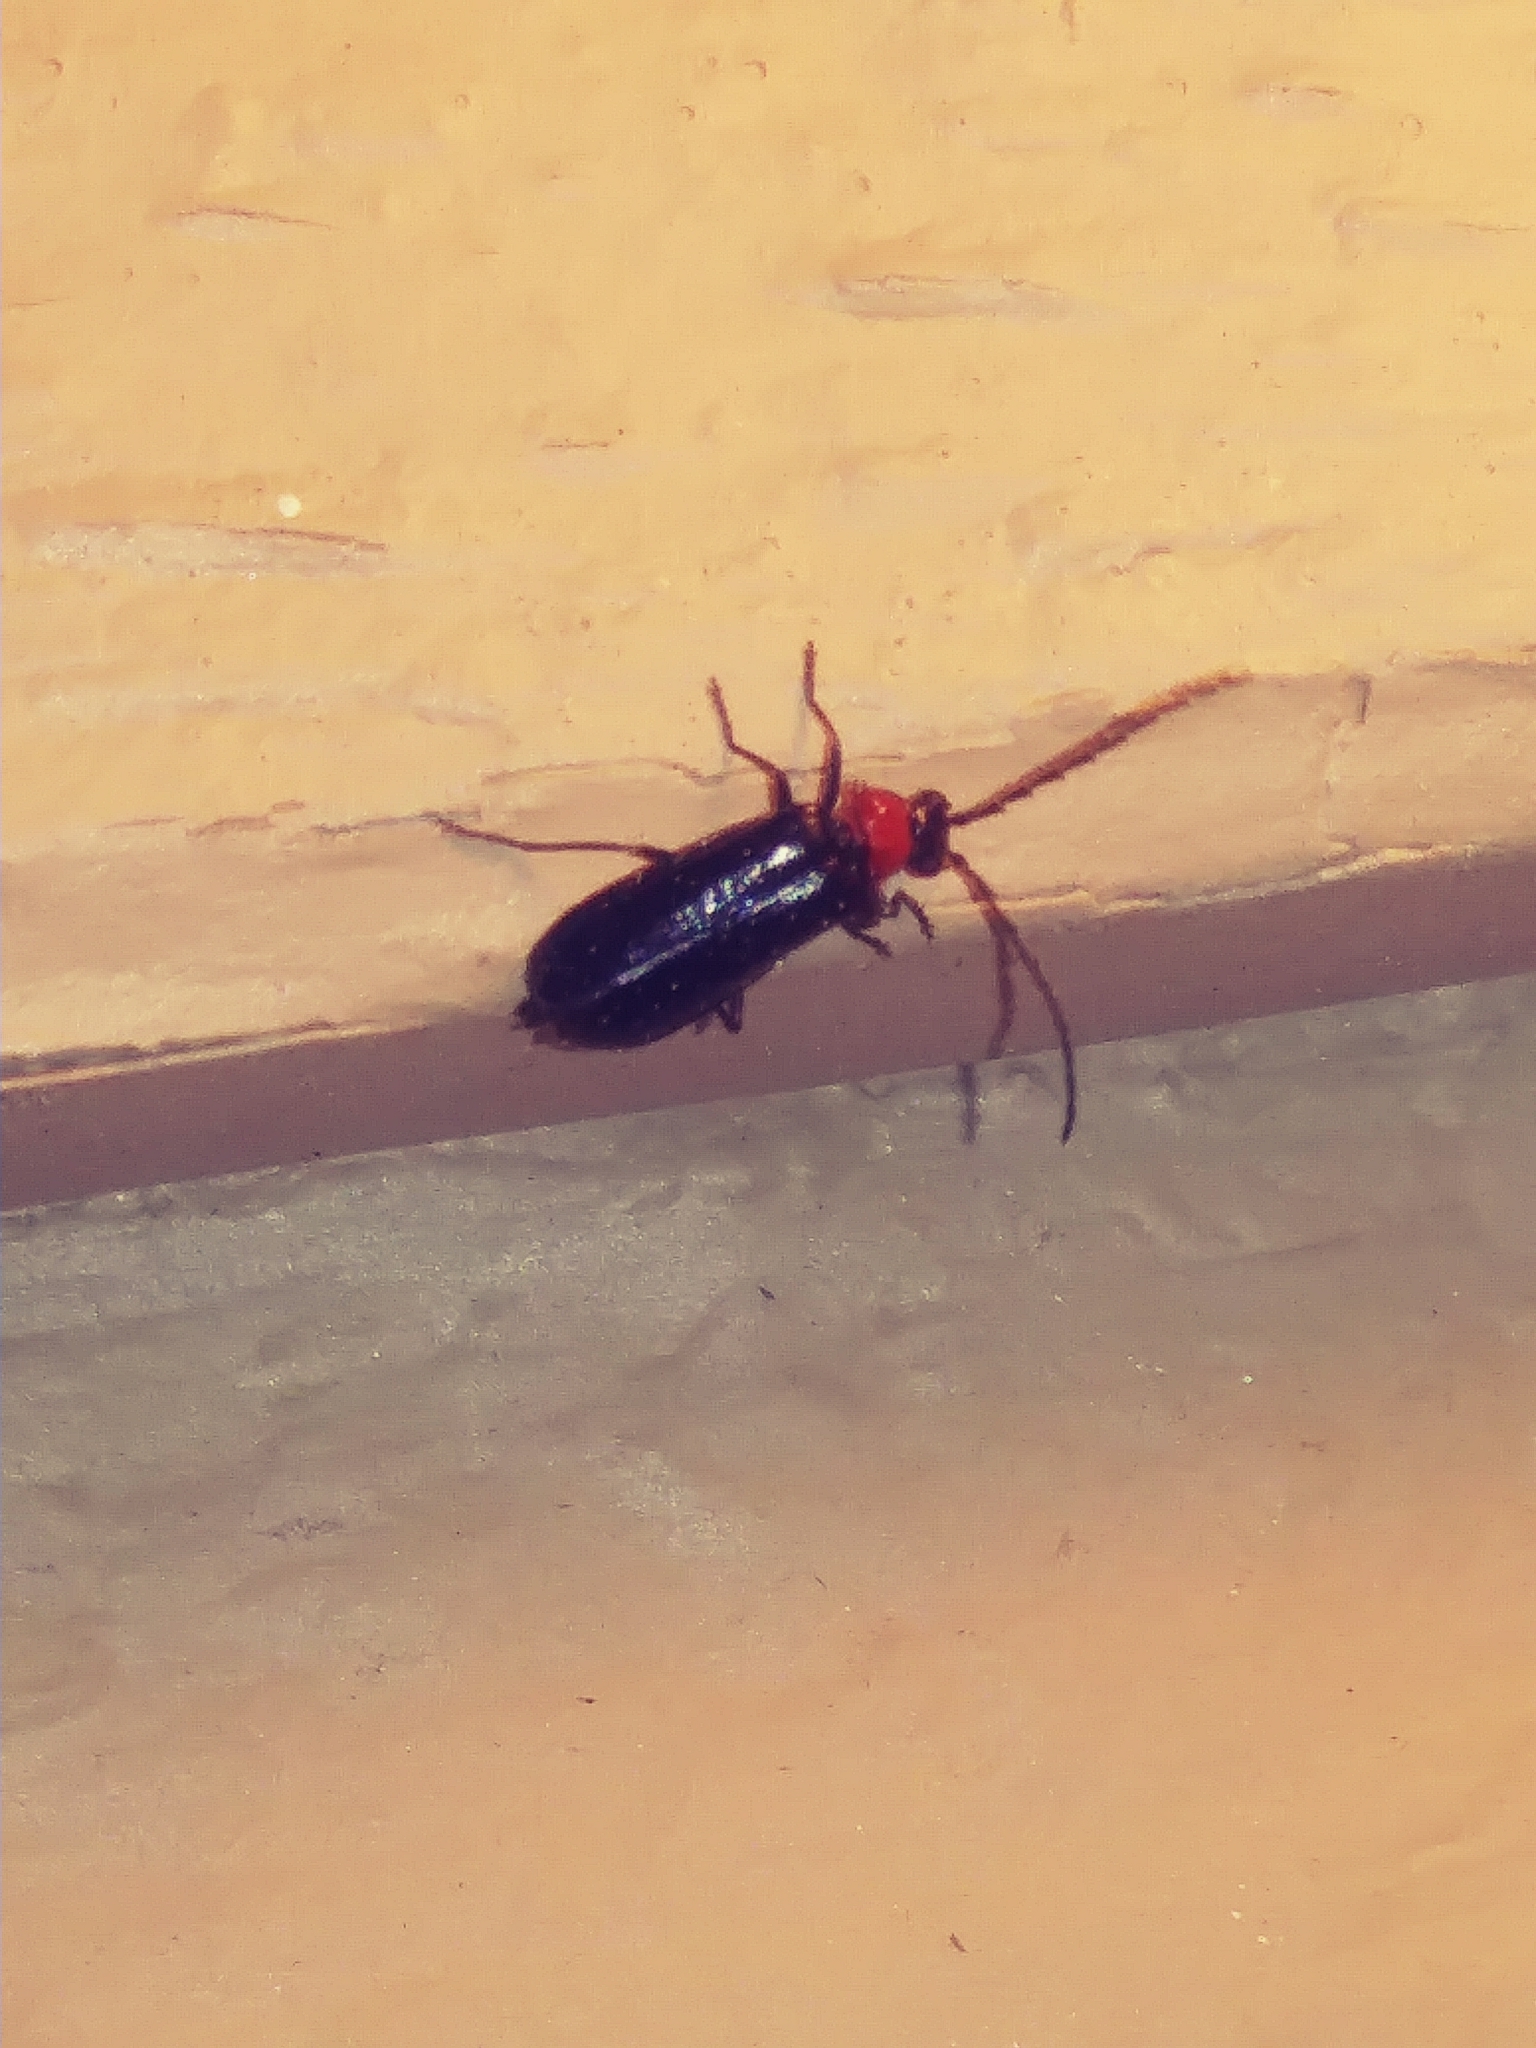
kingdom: Animalia
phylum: Arthropoda
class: Insecta
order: Coleoptera
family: Cantharidae
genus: Atalantycha
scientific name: Atalantycha bilineata
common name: Two-lined leatherwing
